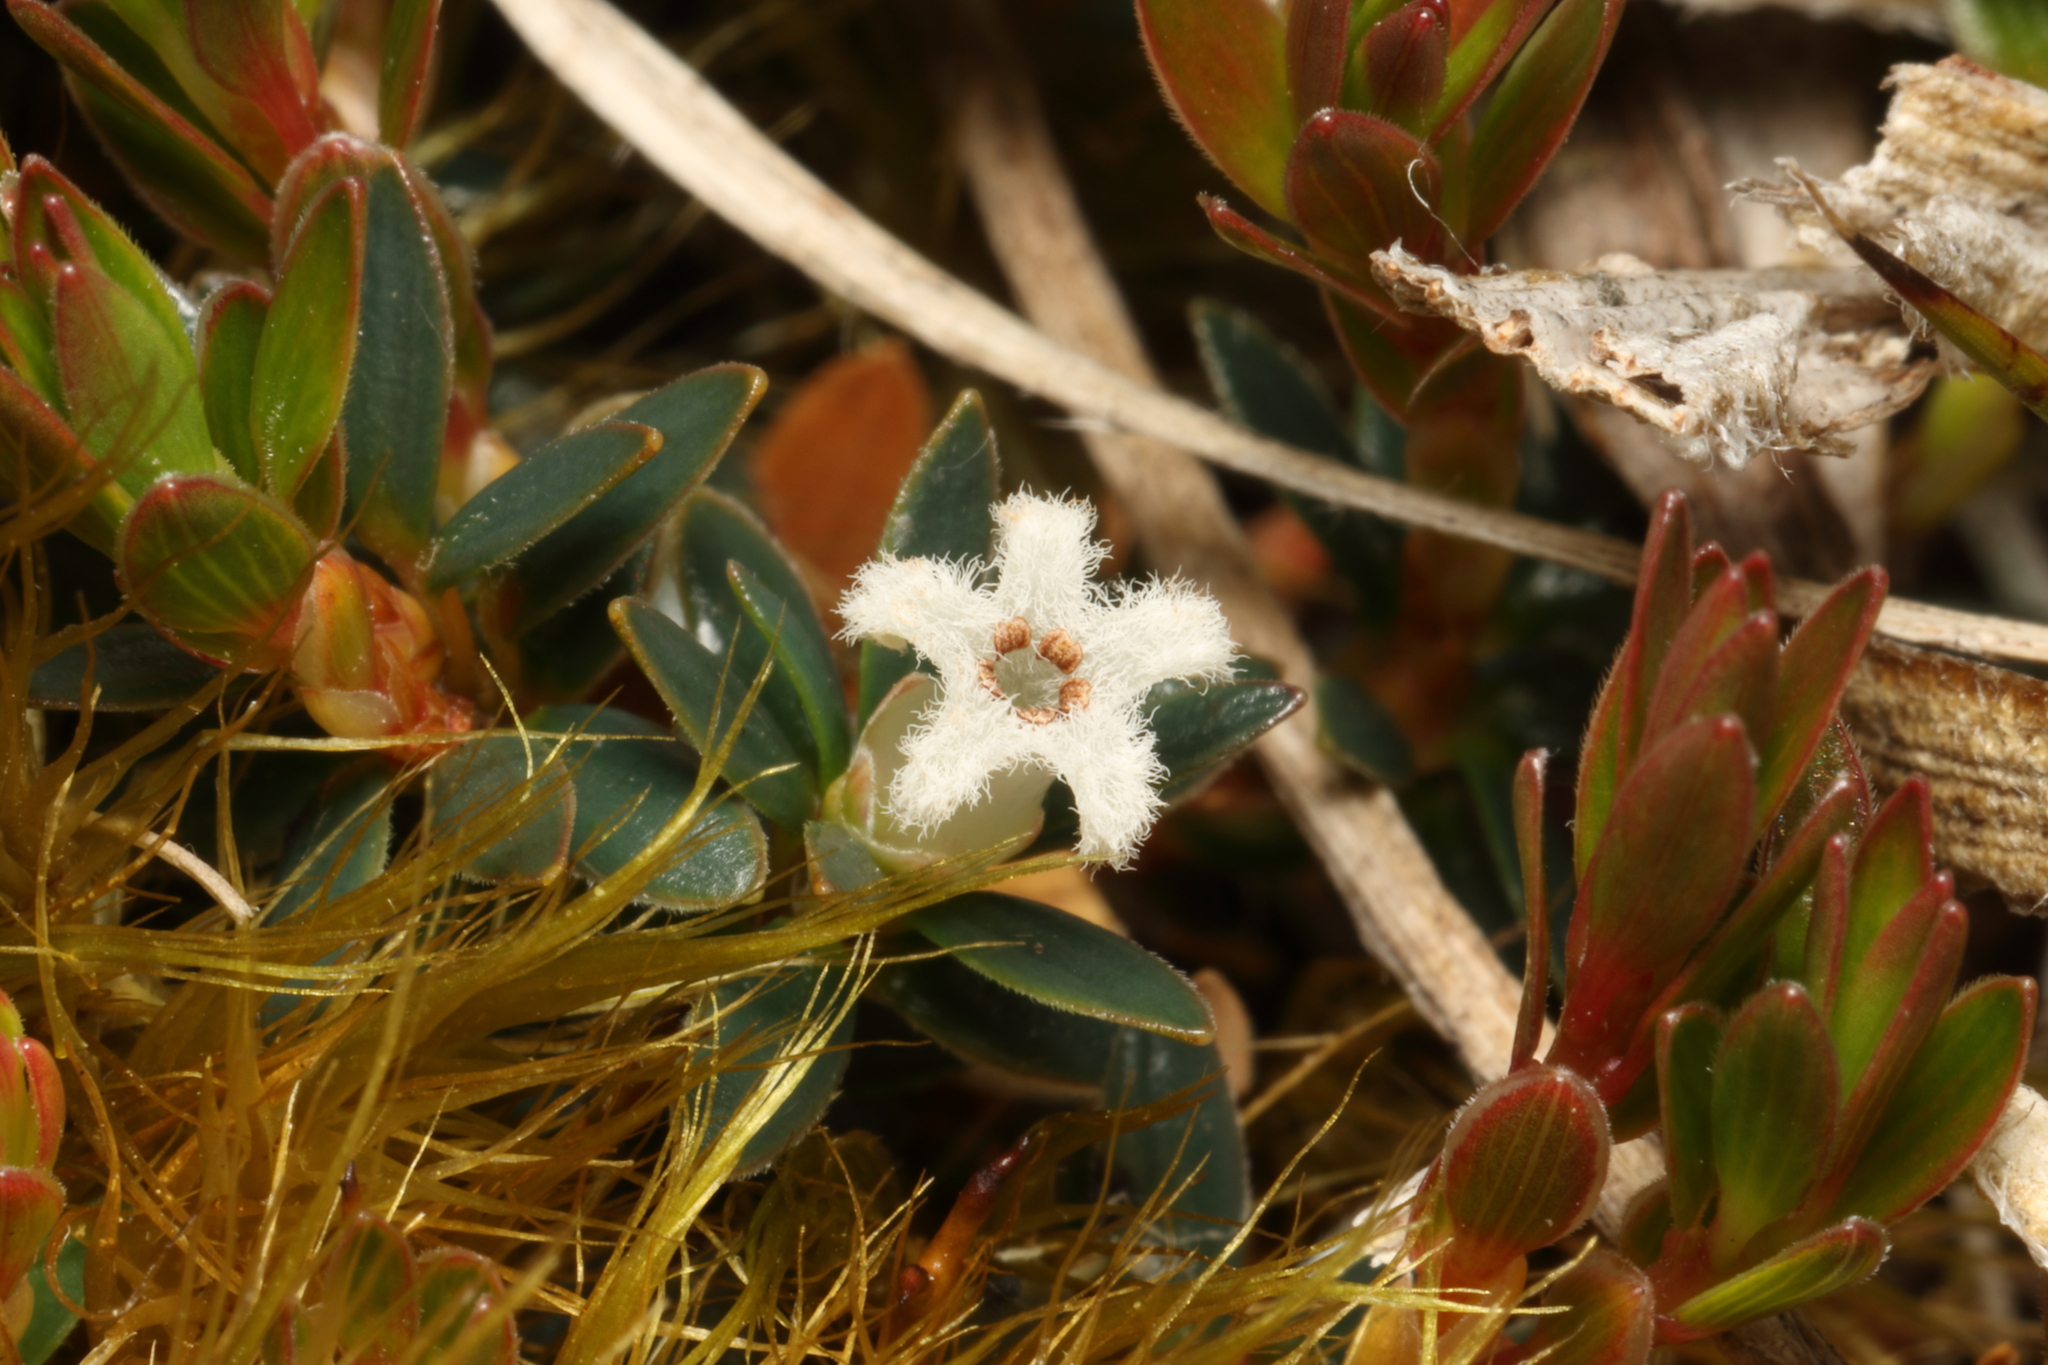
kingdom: Plantae
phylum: Tracheophyta
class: Magnoliopsida
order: Ericales
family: Ericaceae
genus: Pentachondra
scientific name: Pentachondra pumila
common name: Carpet-heath
